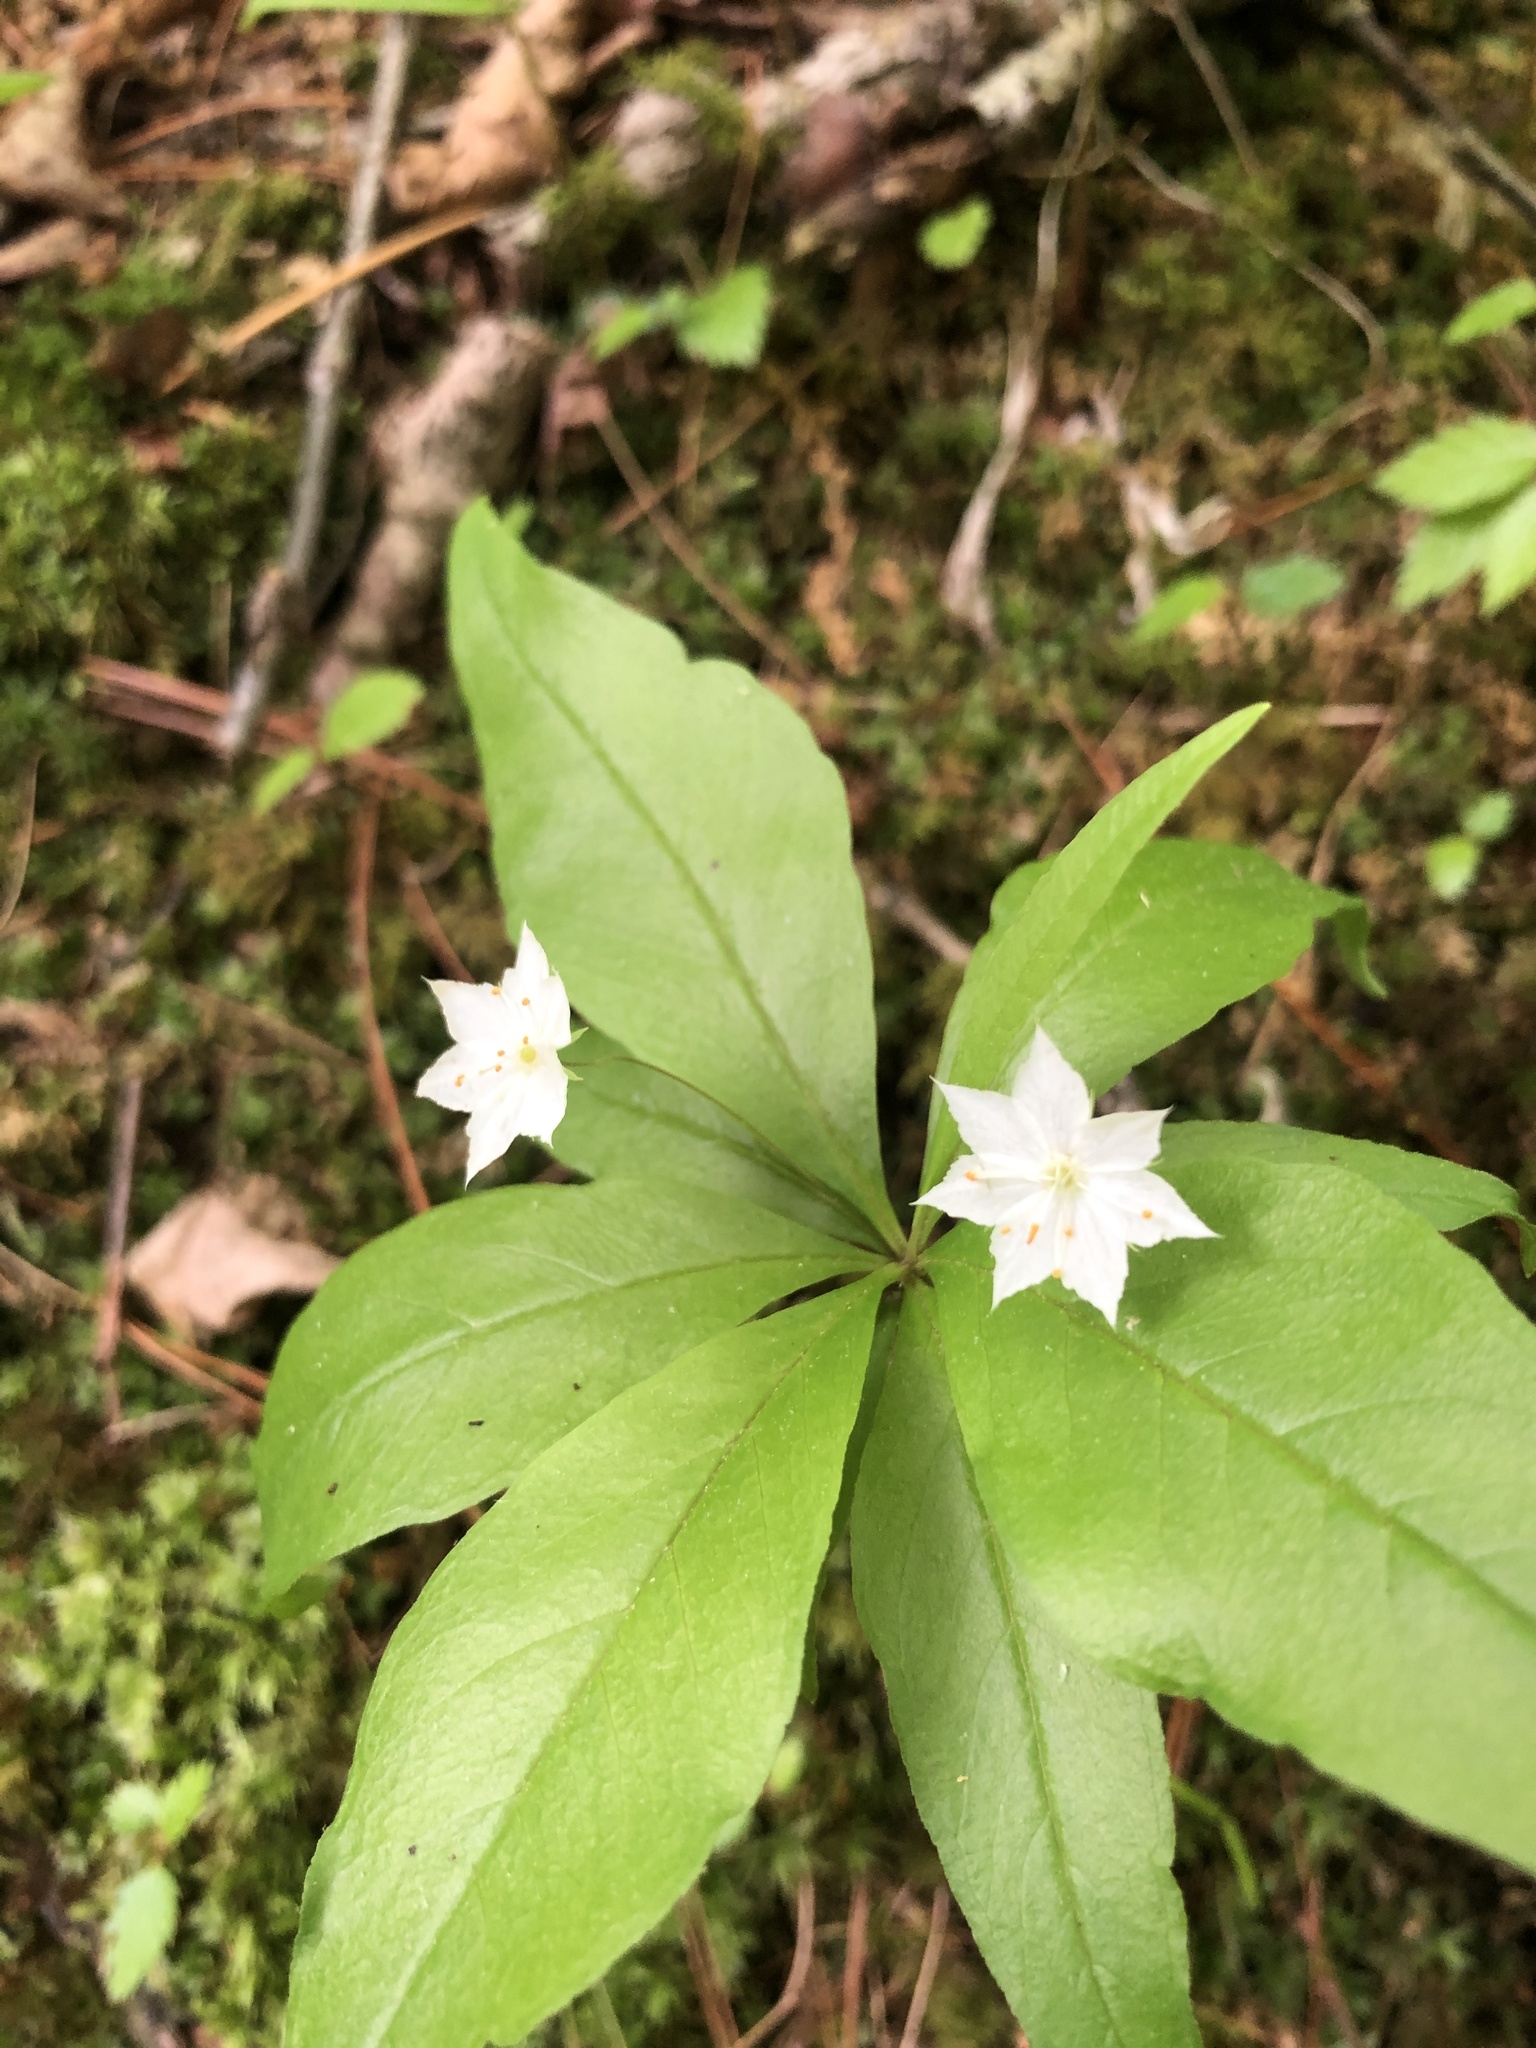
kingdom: Plantae
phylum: Tracheophyta
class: Magnoliopsida
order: Ericales
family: Primulaceae
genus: Lysimachia
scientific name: Lysimachia borealis
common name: American starflower
